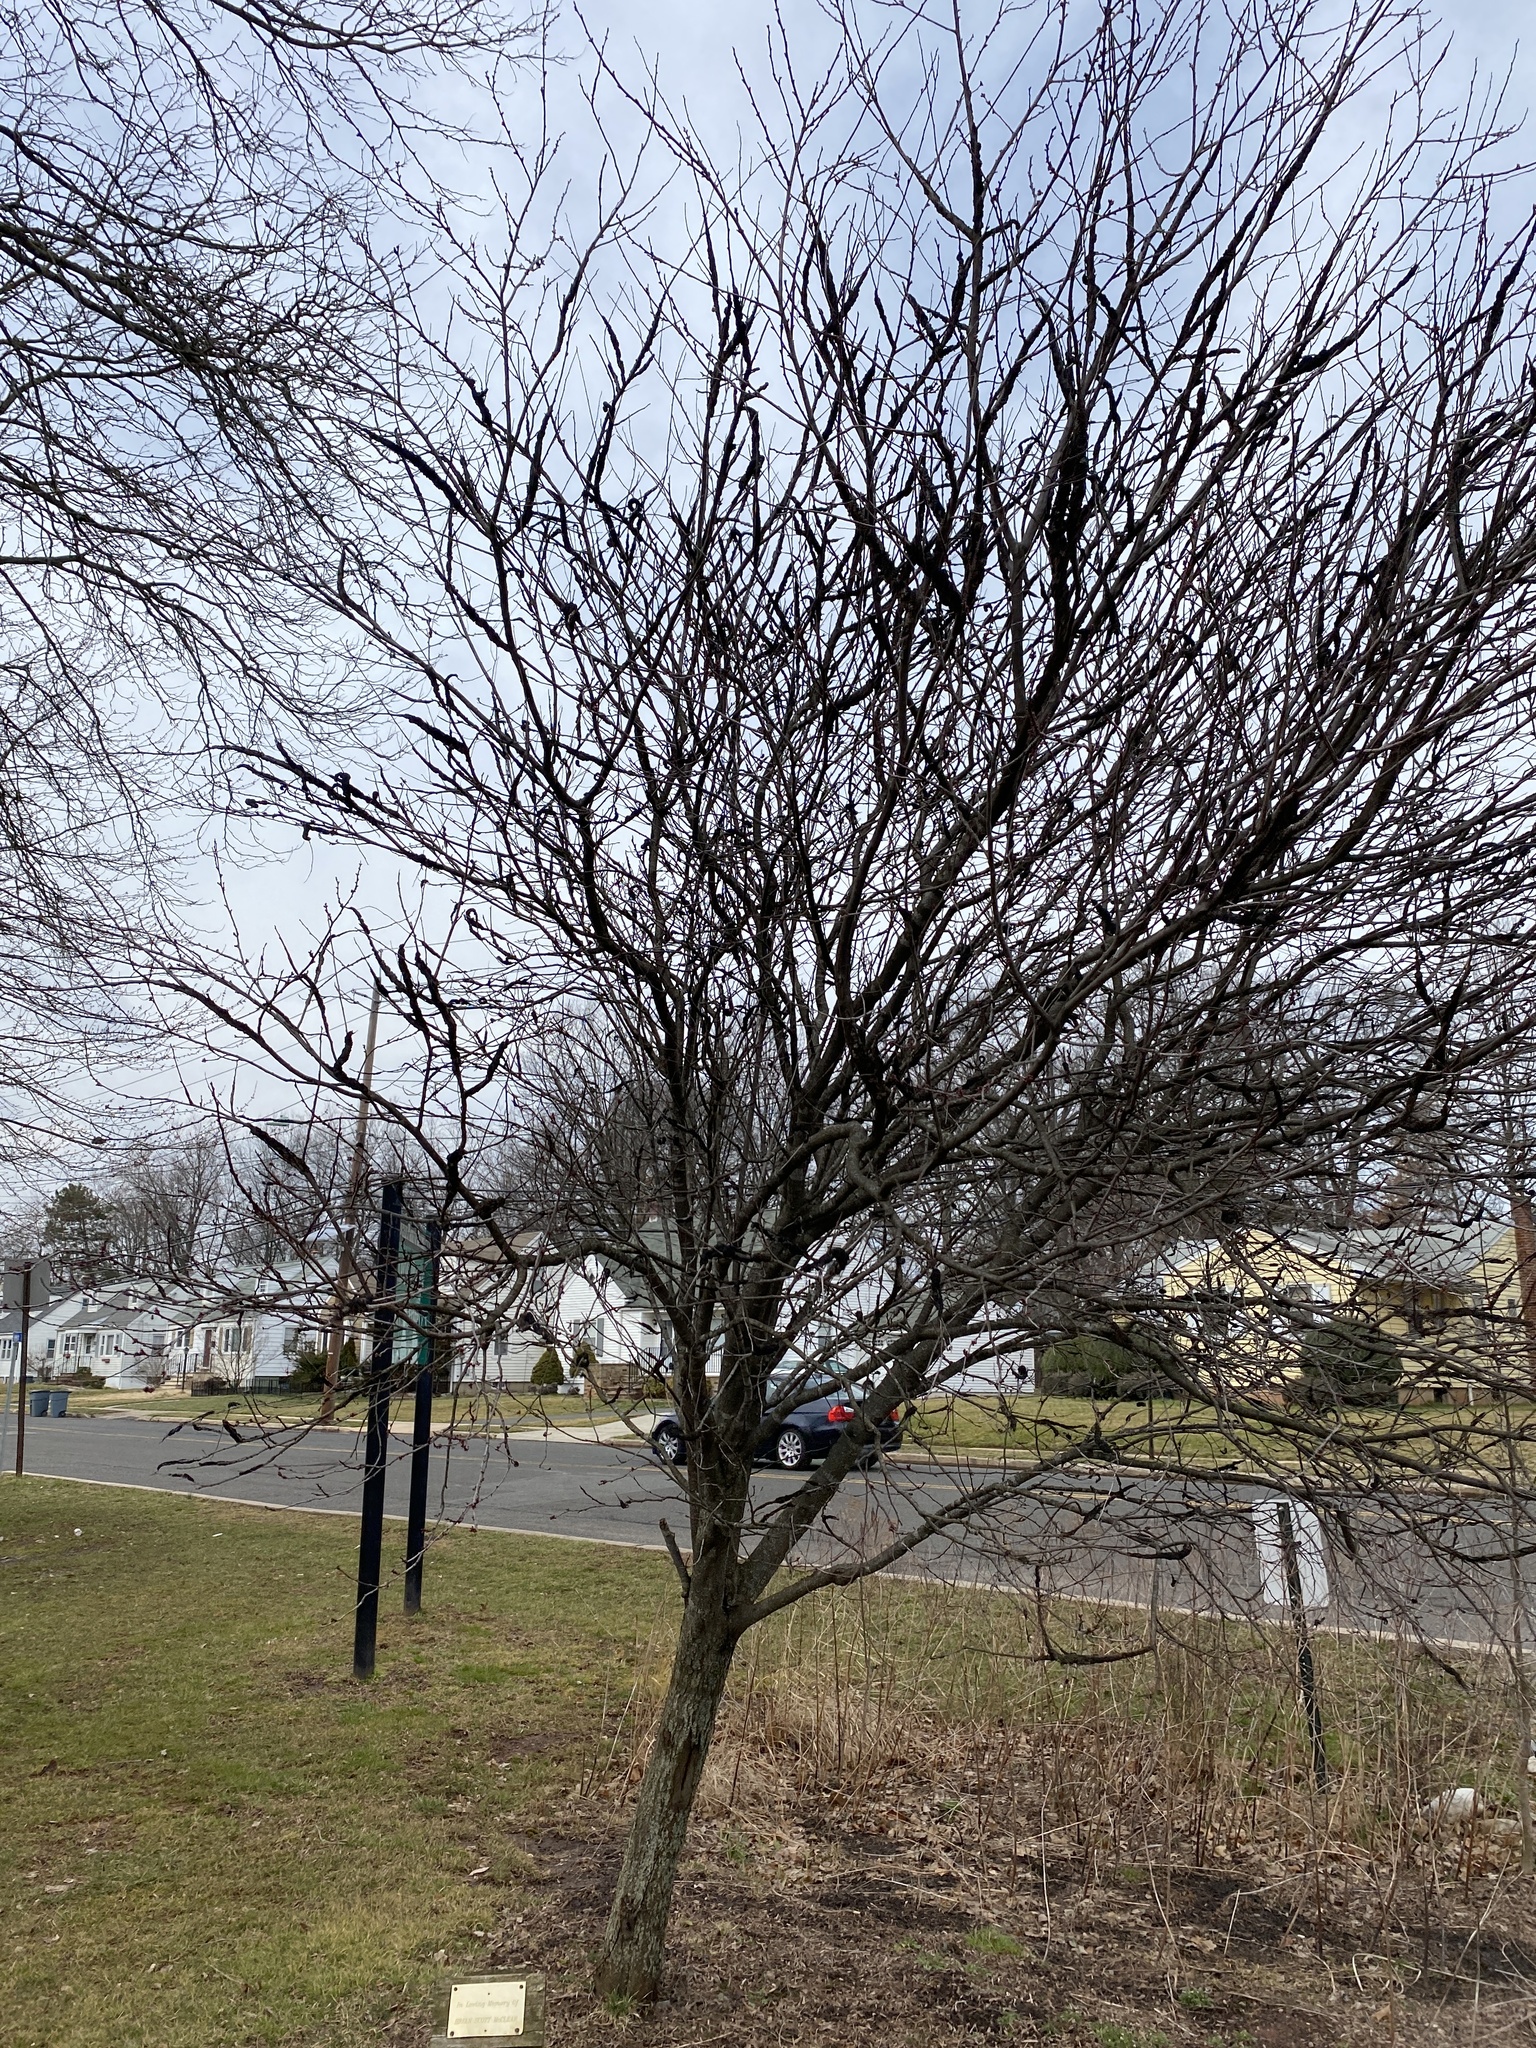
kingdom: Fungi
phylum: Ascomycota
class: Dothideomycetes
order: Venturiales
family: Venturiaceae
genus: Apiosporina
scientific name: Apiosporina morbosa
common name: Black knot
